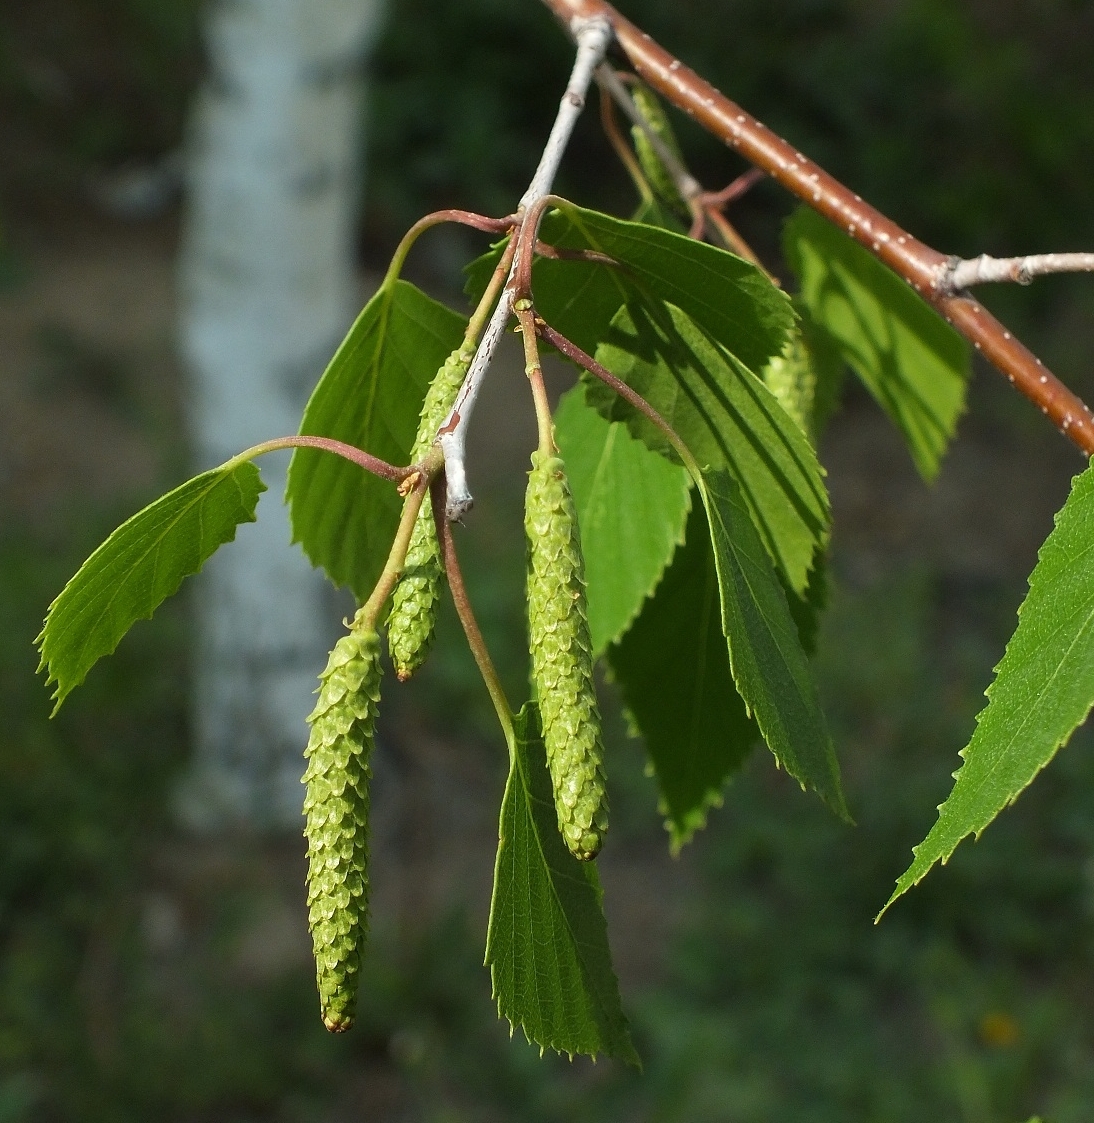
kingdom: Plantae
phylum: Tracheophyta
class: Magnoliopsida
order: Fagales
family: Betulaceae
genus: Betula
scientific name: Betula pendula
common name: Silver birch
